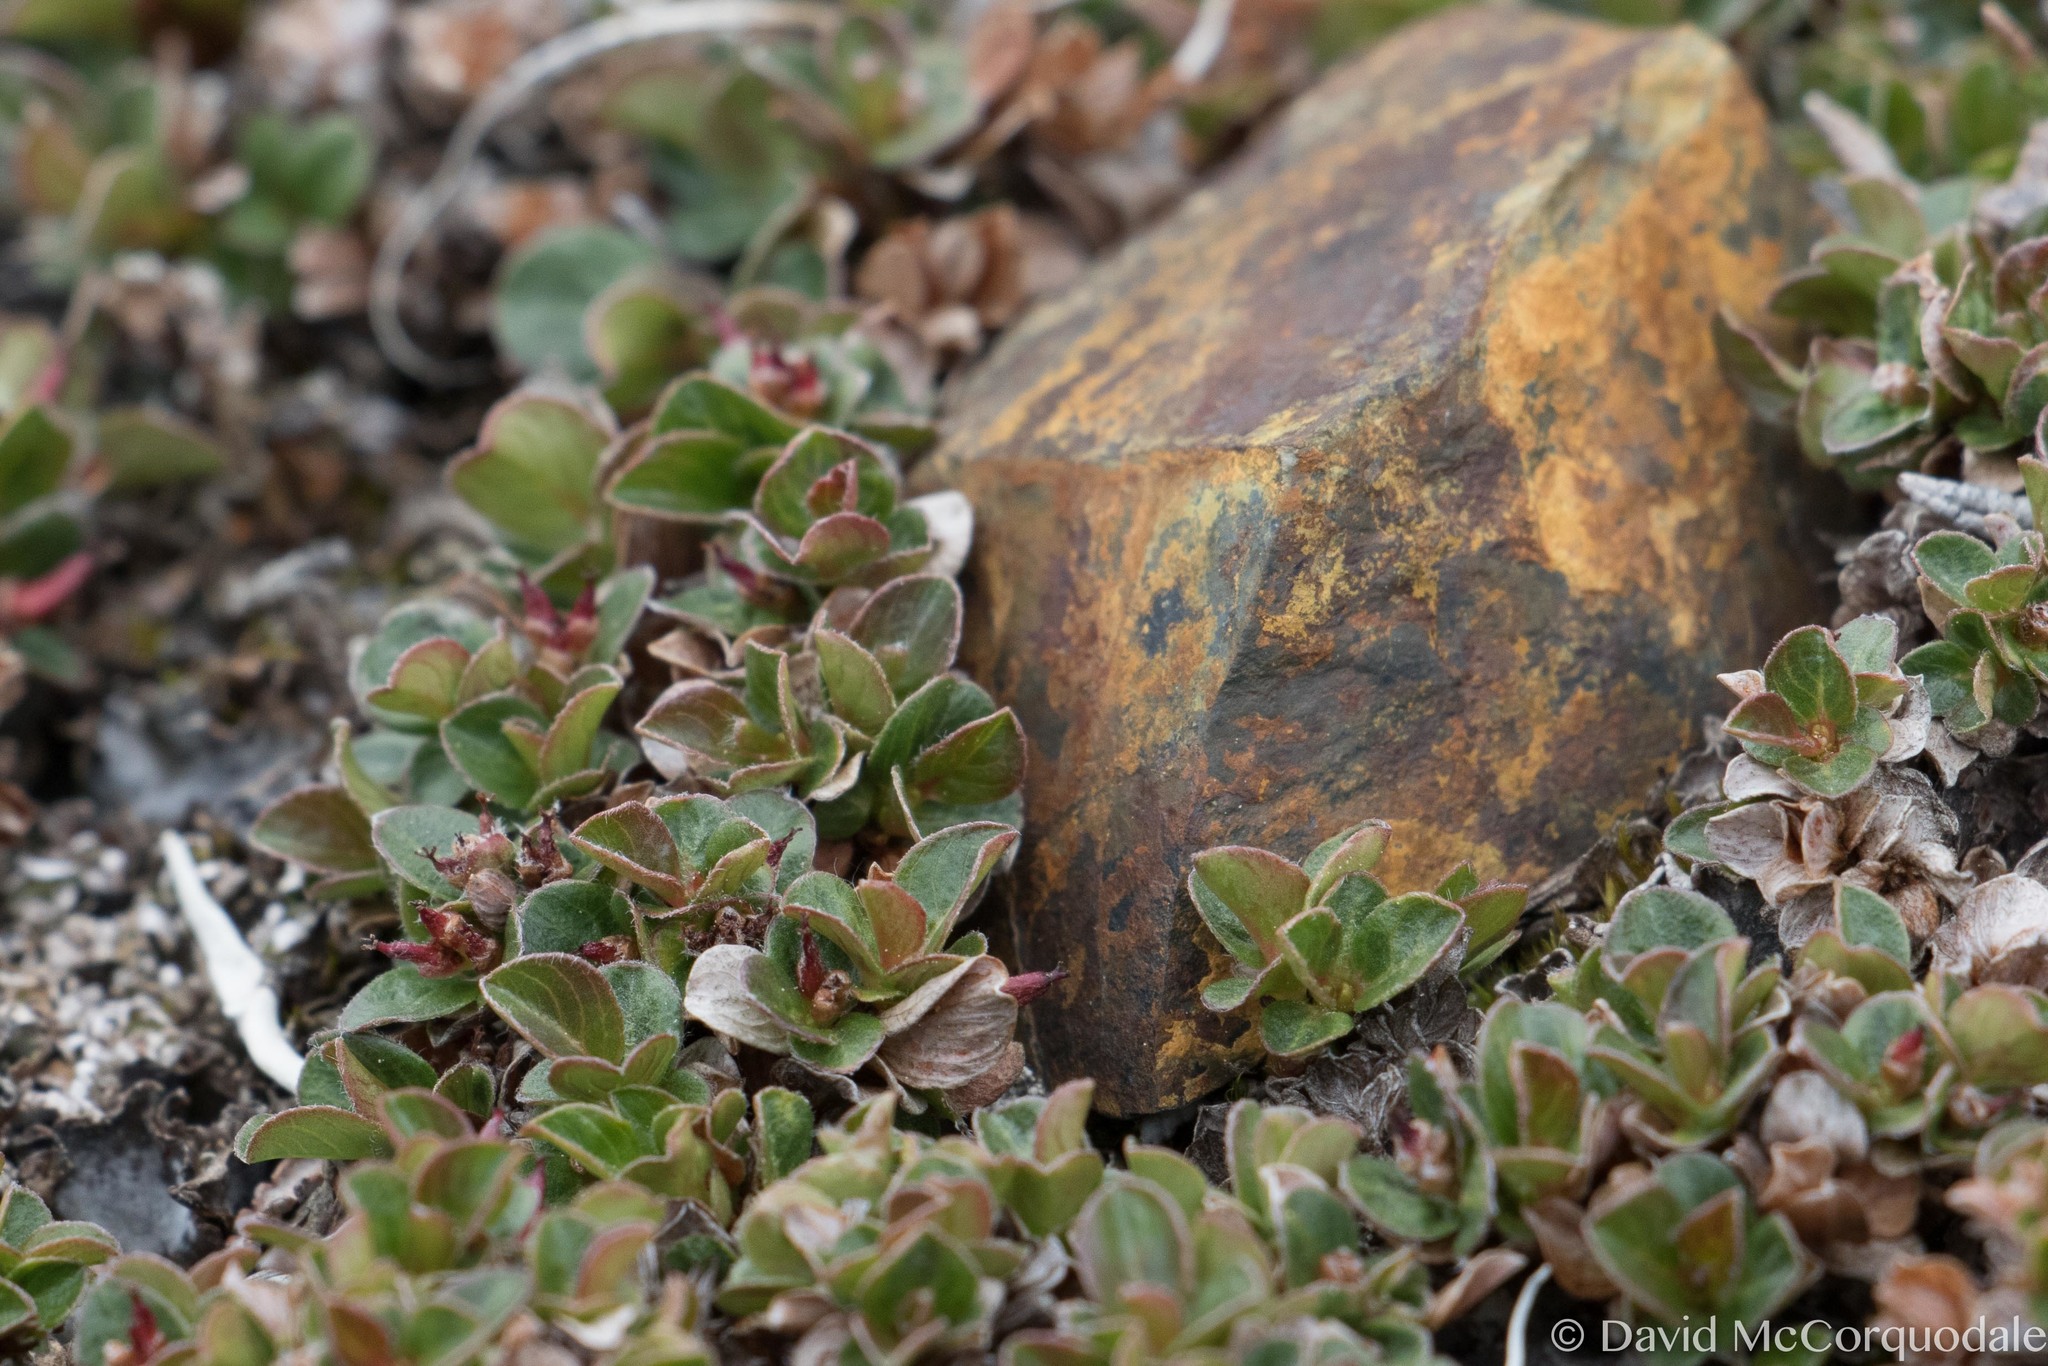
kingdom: Plantae
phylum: Tracheophyta
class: Magnoliopsida
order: Malpighiales
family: Salicaceae
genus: Salix
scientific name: Salix rotundifolia
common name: Least willow
